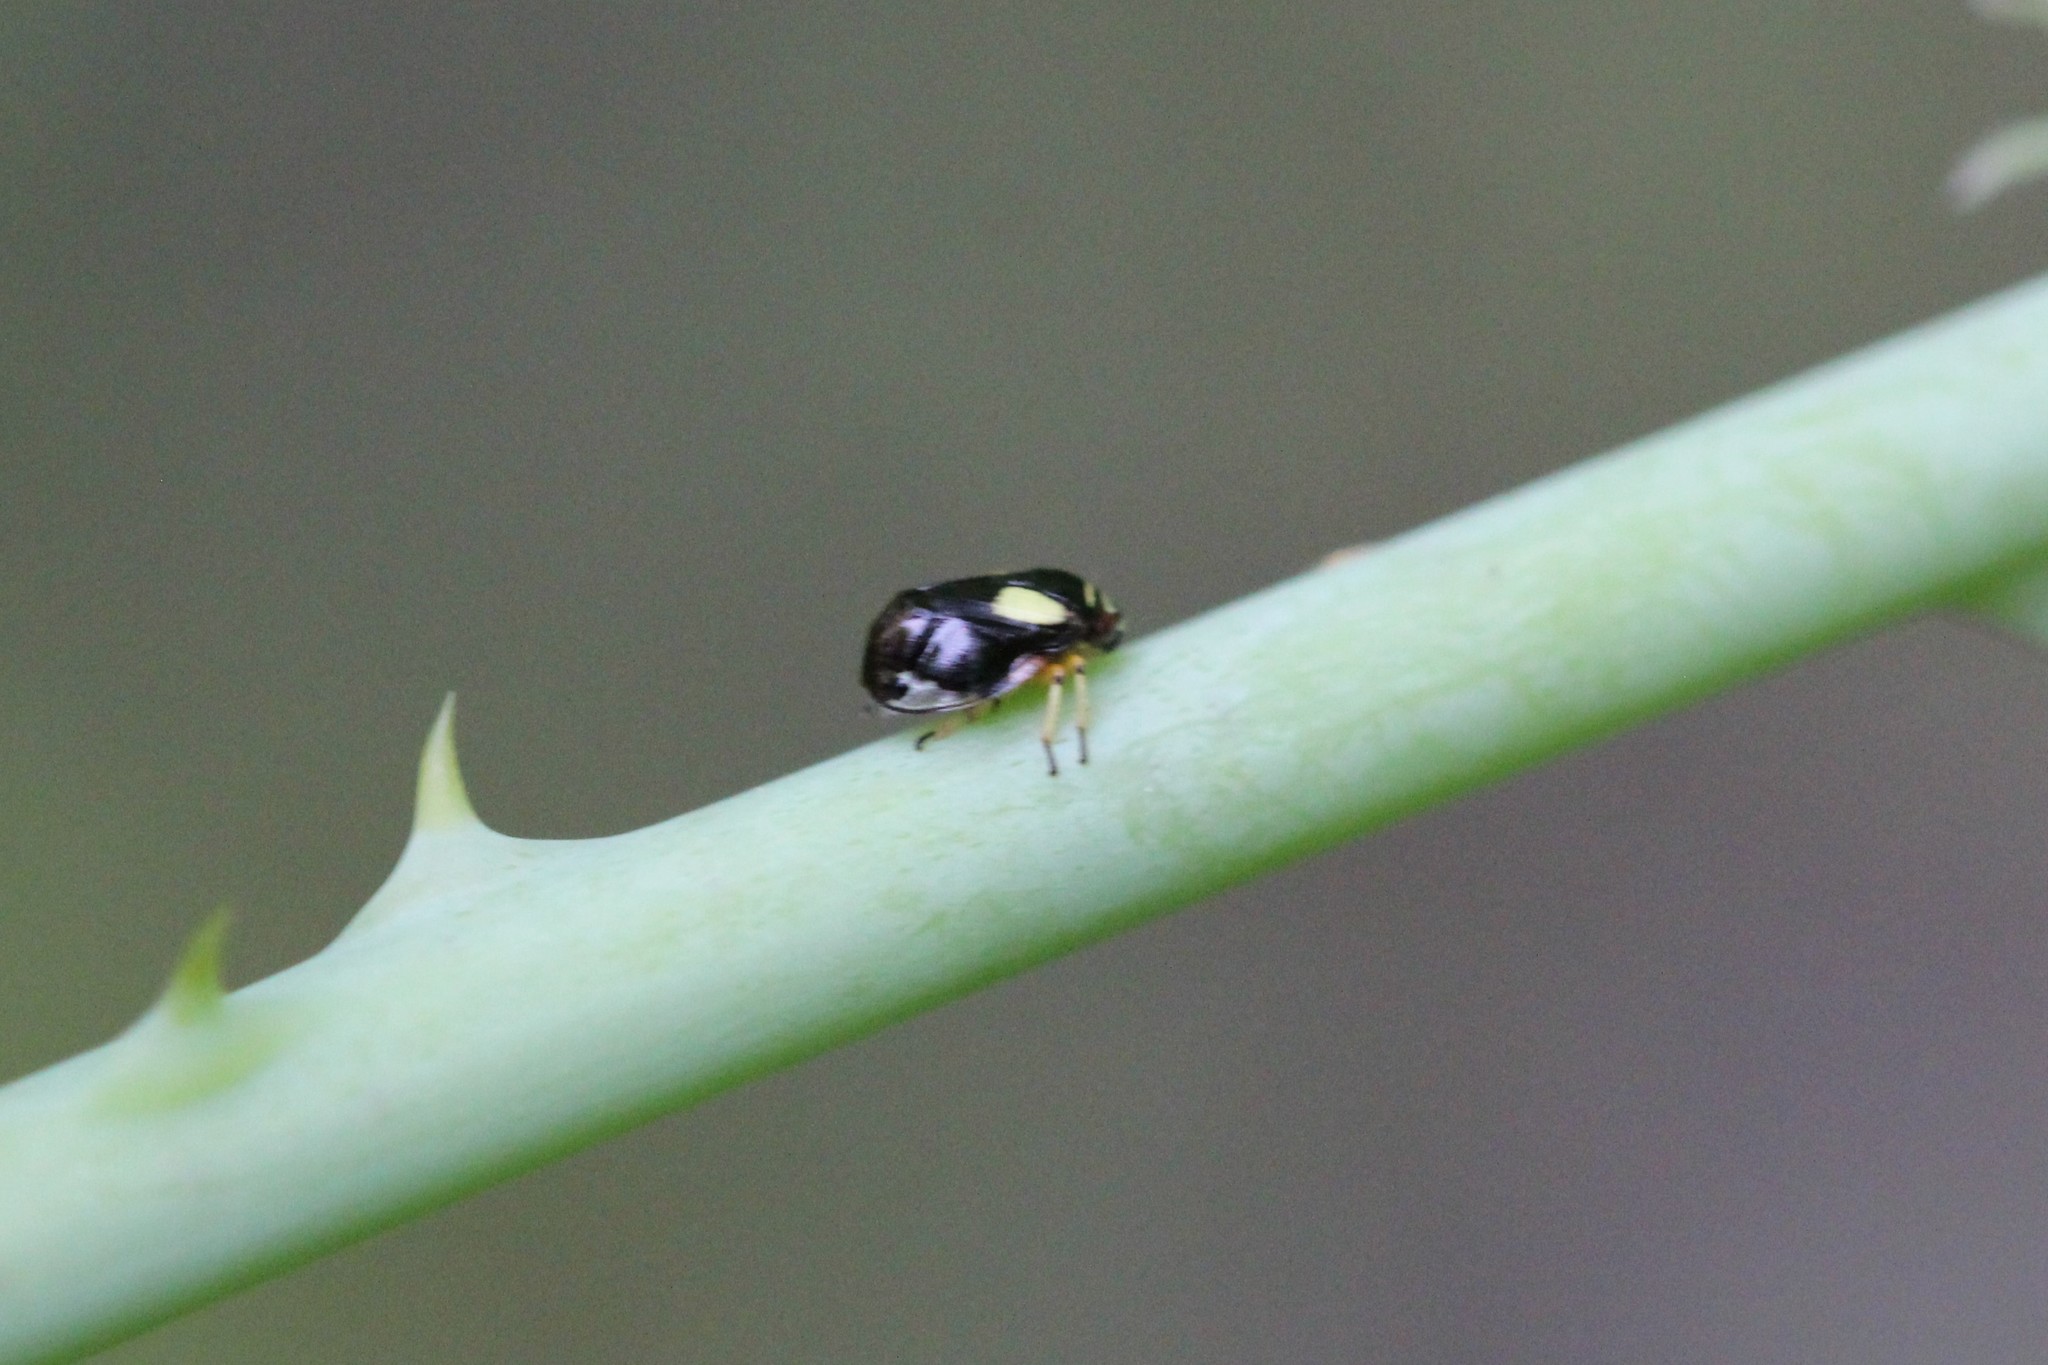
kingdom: Animalia
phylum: Arthropoda
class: Insecta
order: Hemiptera
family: Clastopteridae
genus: Clastoptera
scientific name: Clastoptera proteus
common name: Dogwood spittlebug
